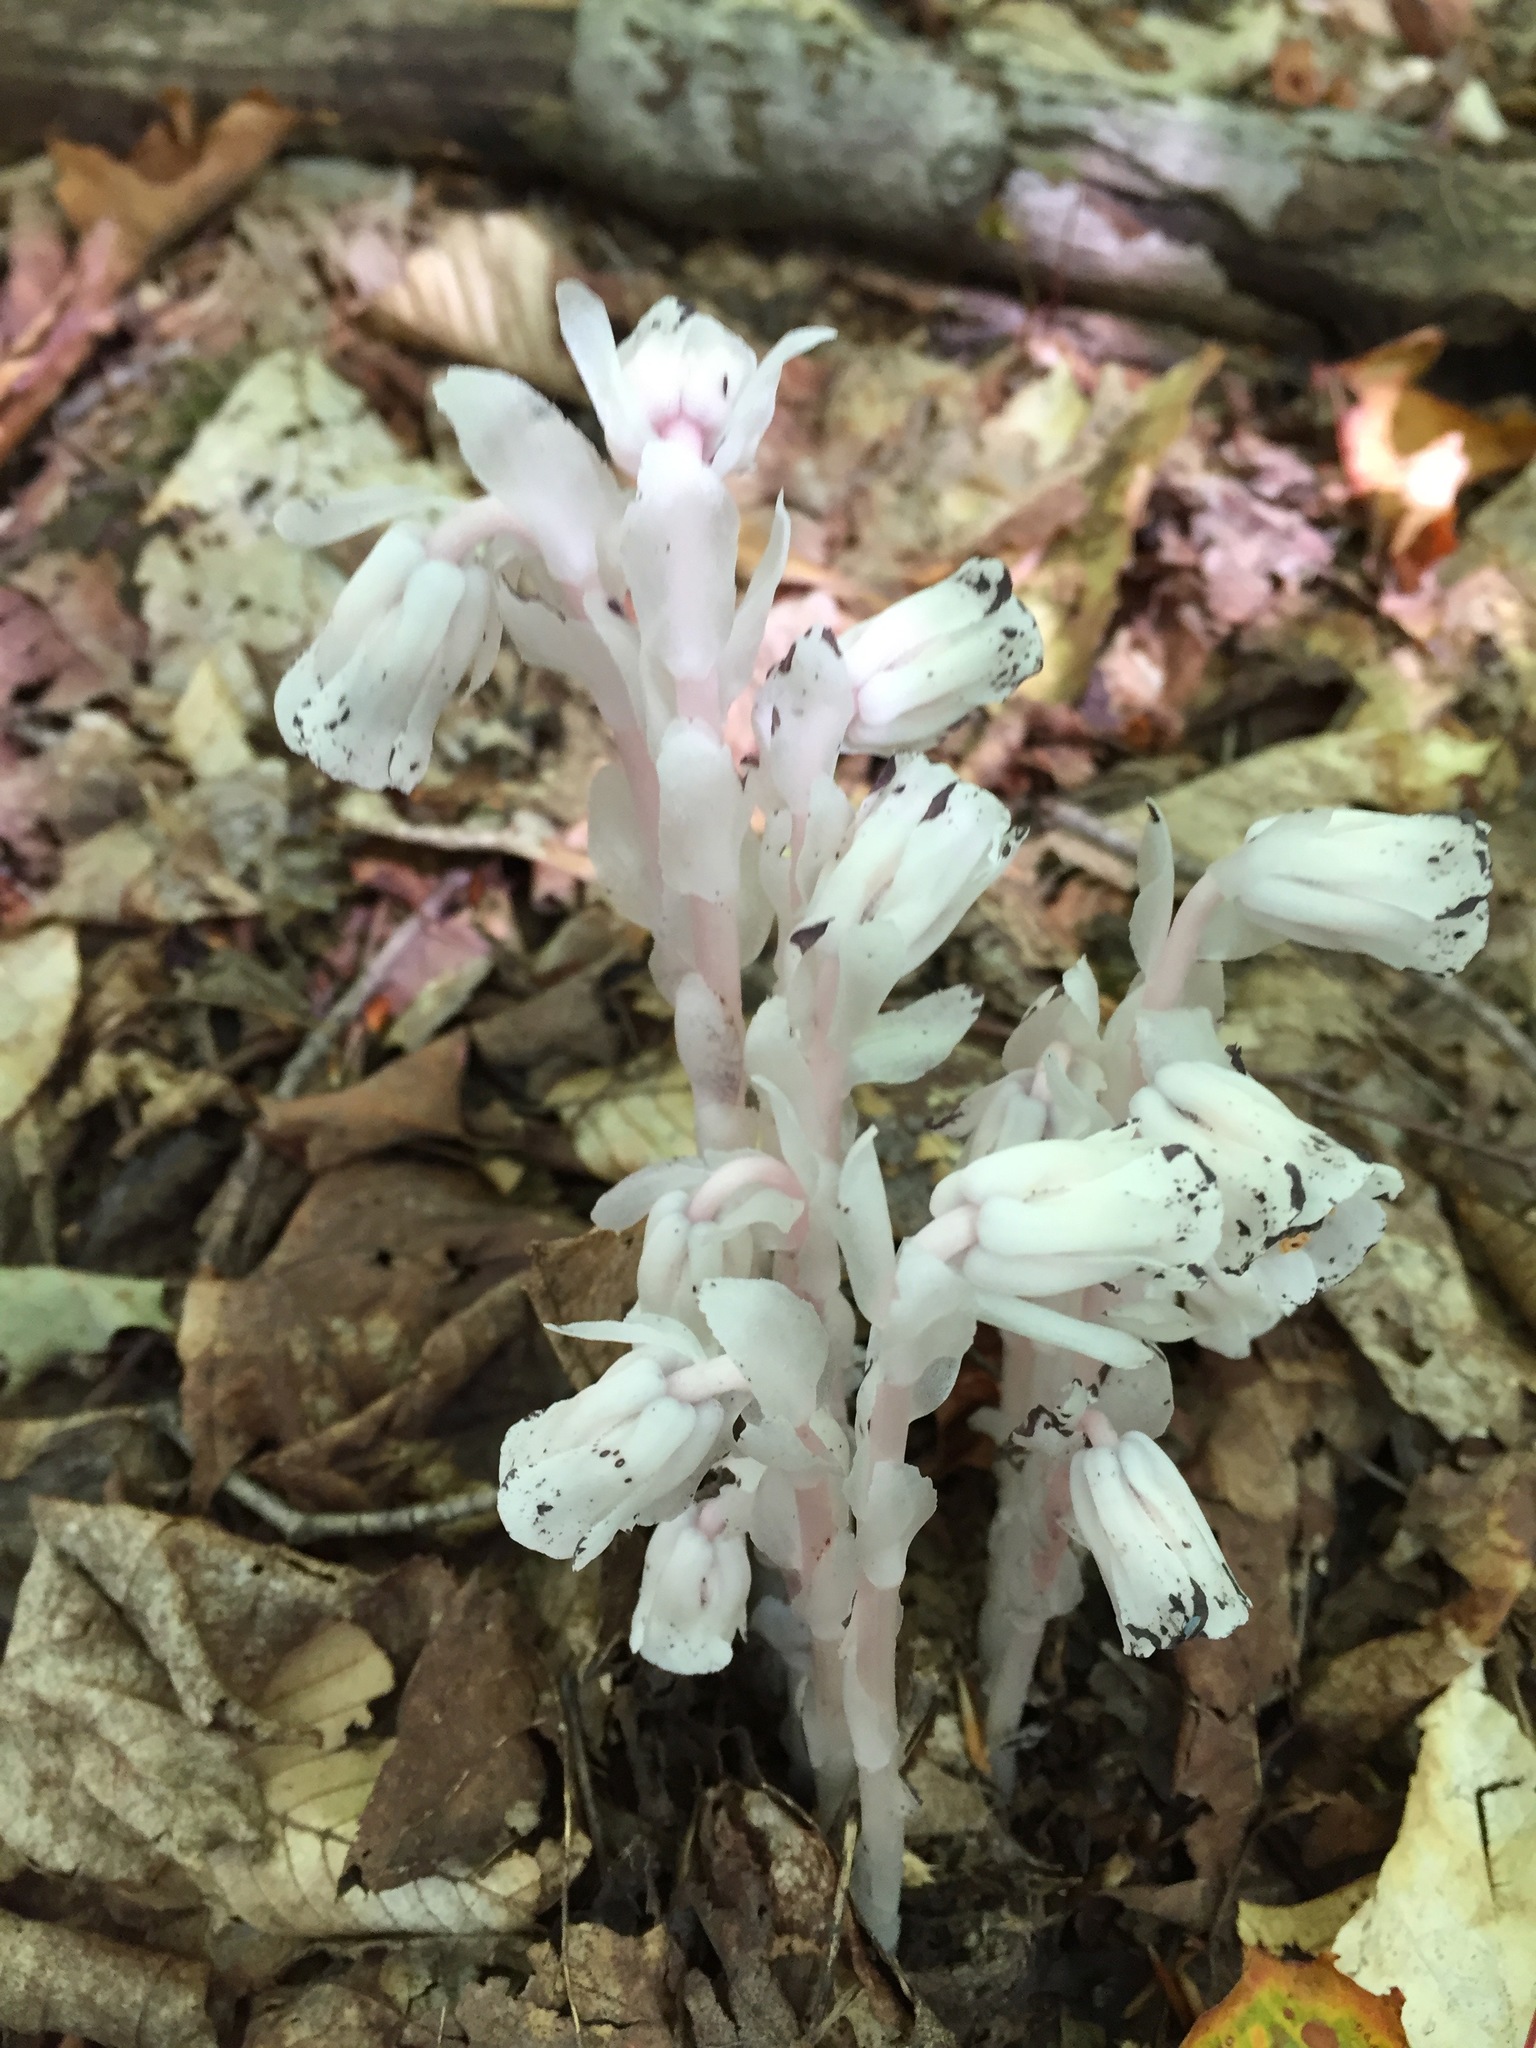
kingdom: Plantae
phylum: Tracheophyta
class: Magnoliopsida
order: Ericales
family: Ericaceae
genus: Monotropa
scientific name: Monotropa uniflora
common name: Convulsion root
